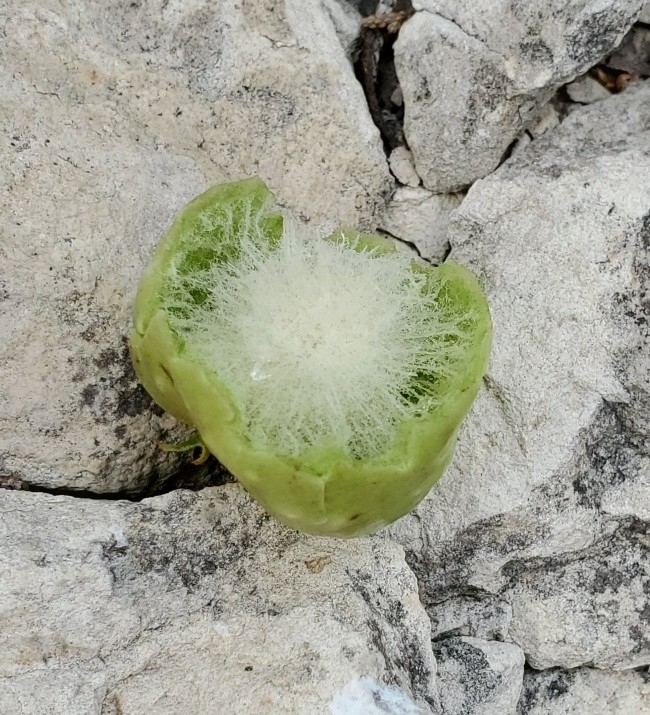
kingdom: Animalia
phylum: Arthropoda
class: Insecta
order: Hymenoptera
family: Cynipidae
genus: Amphibolips
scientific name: Amphibolips
